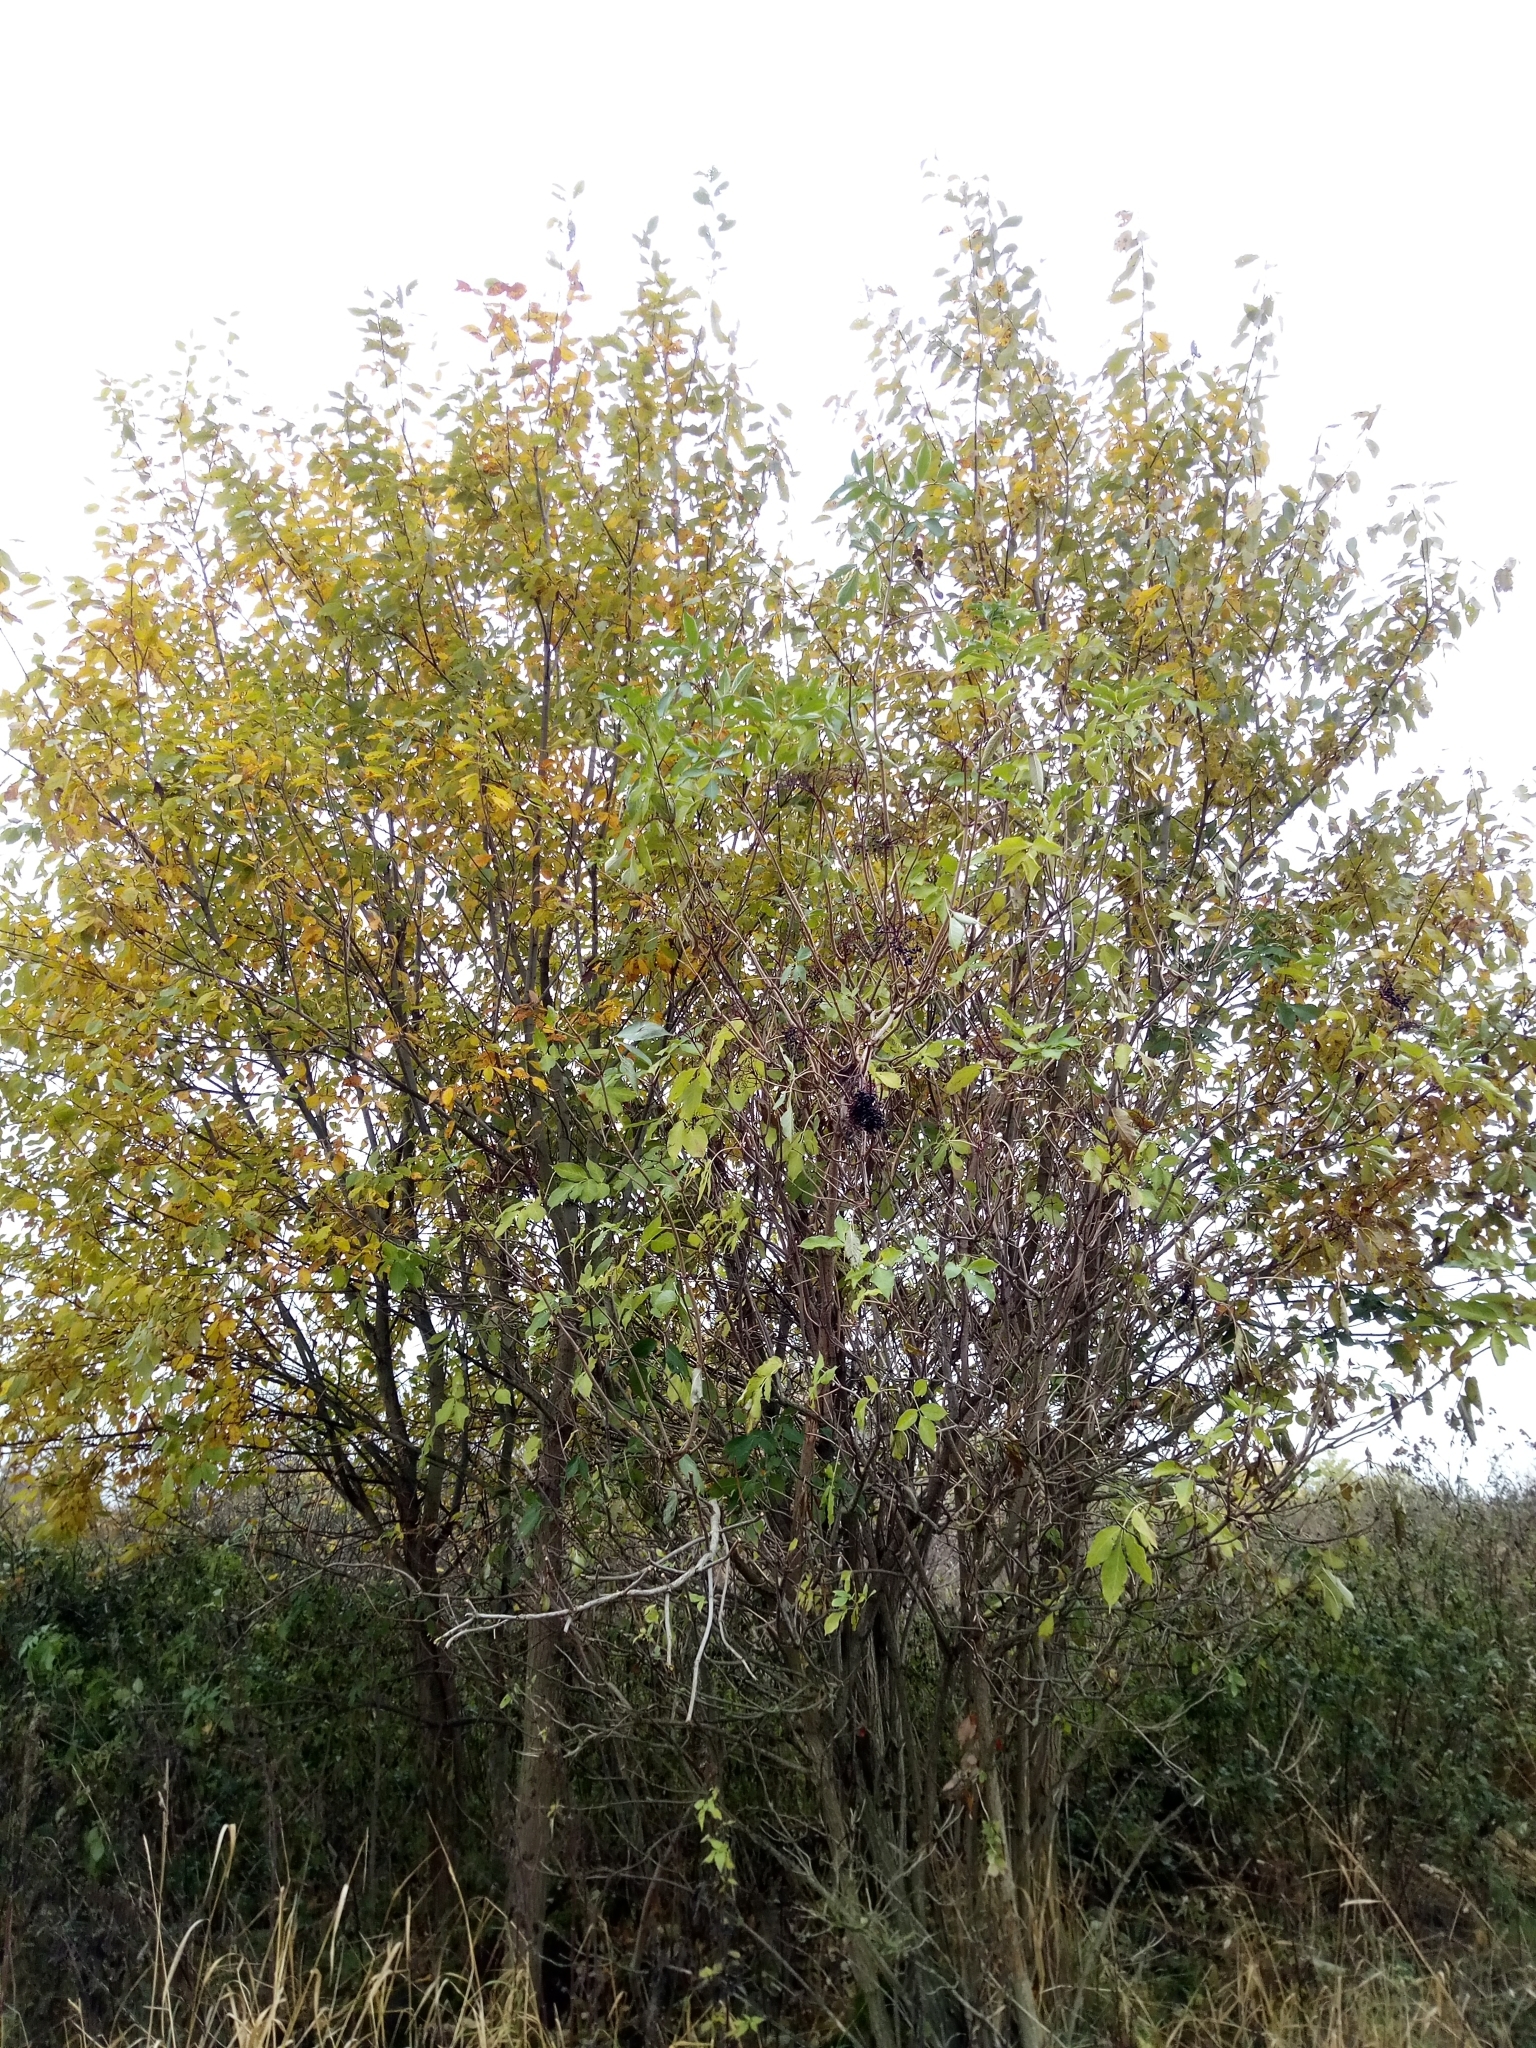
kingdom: Plantae
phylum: Tracheophyta
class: Magnoliopsida
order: Dipsacales
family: Viburnaceae
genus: Sambucus
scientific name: Sambucus nigra
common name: Elder
